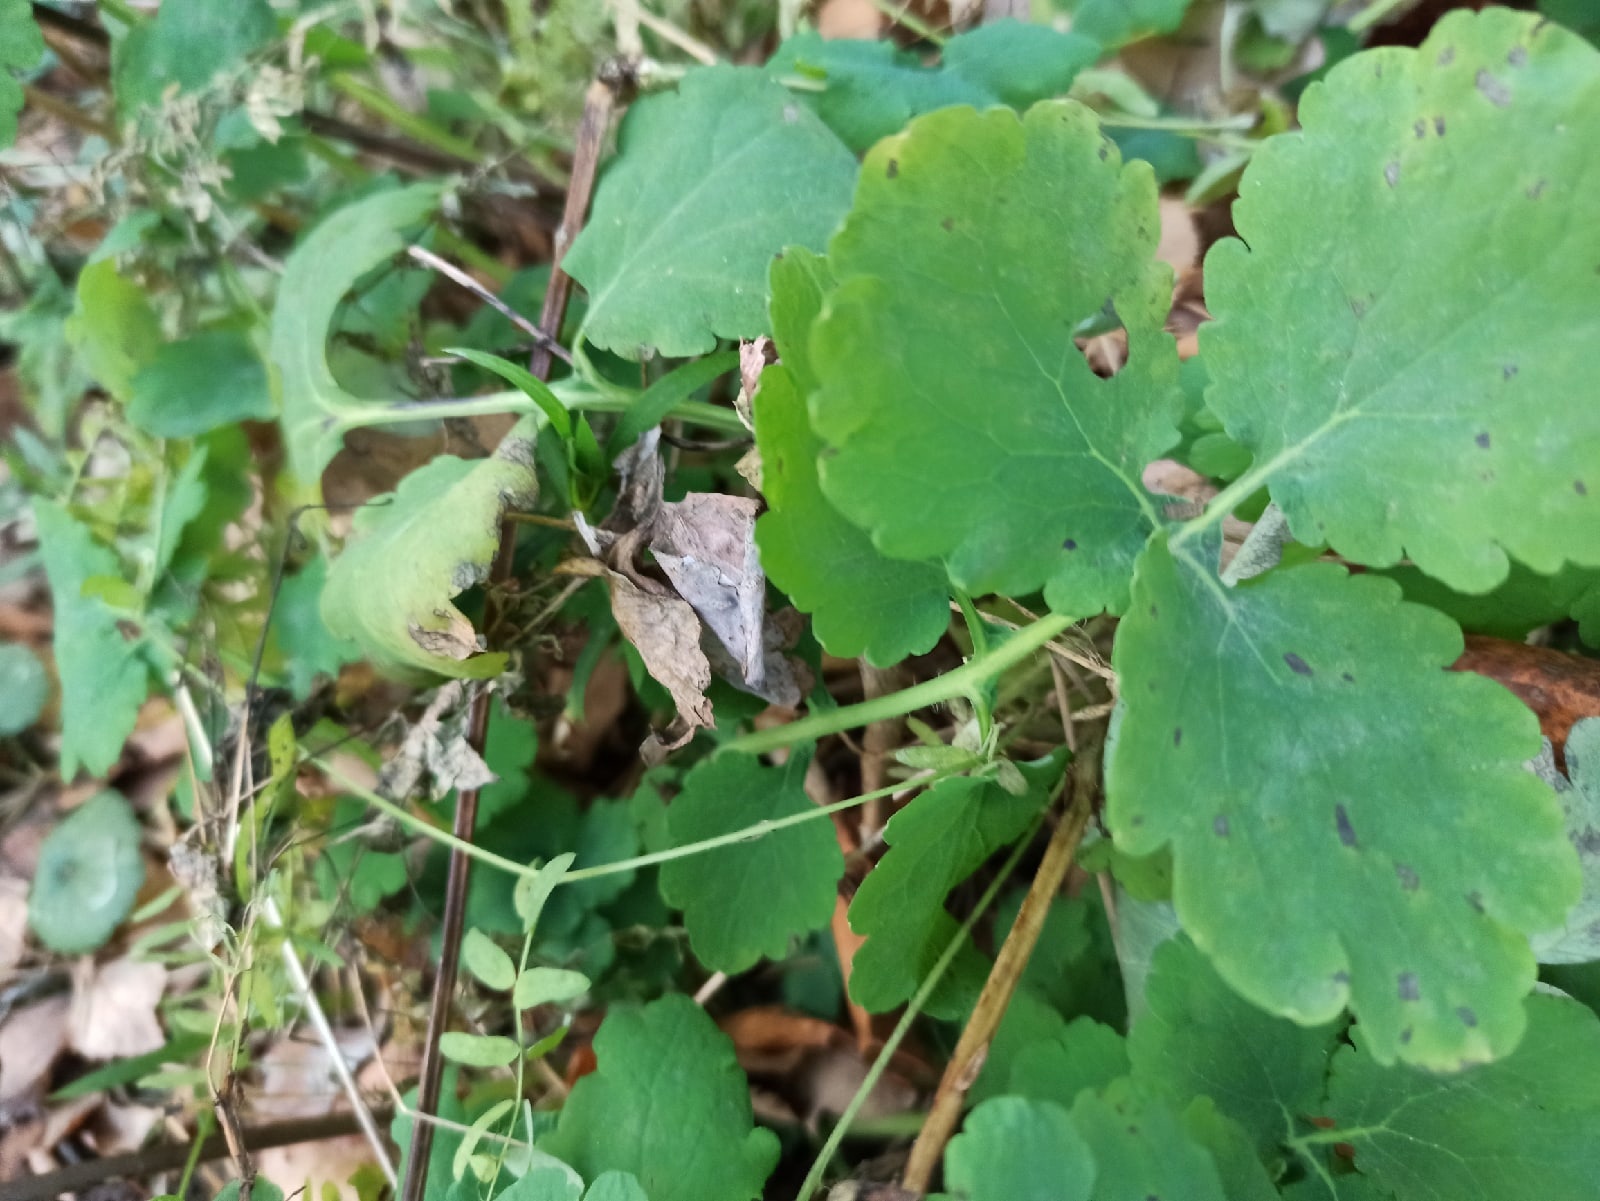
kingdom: Plantae
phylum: Tracheophyta
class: Magnoliopsida
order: Ranunculales
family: Papaveraceae
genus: Chelidonium
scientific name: Chelidonium majus
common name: Greater celandine
